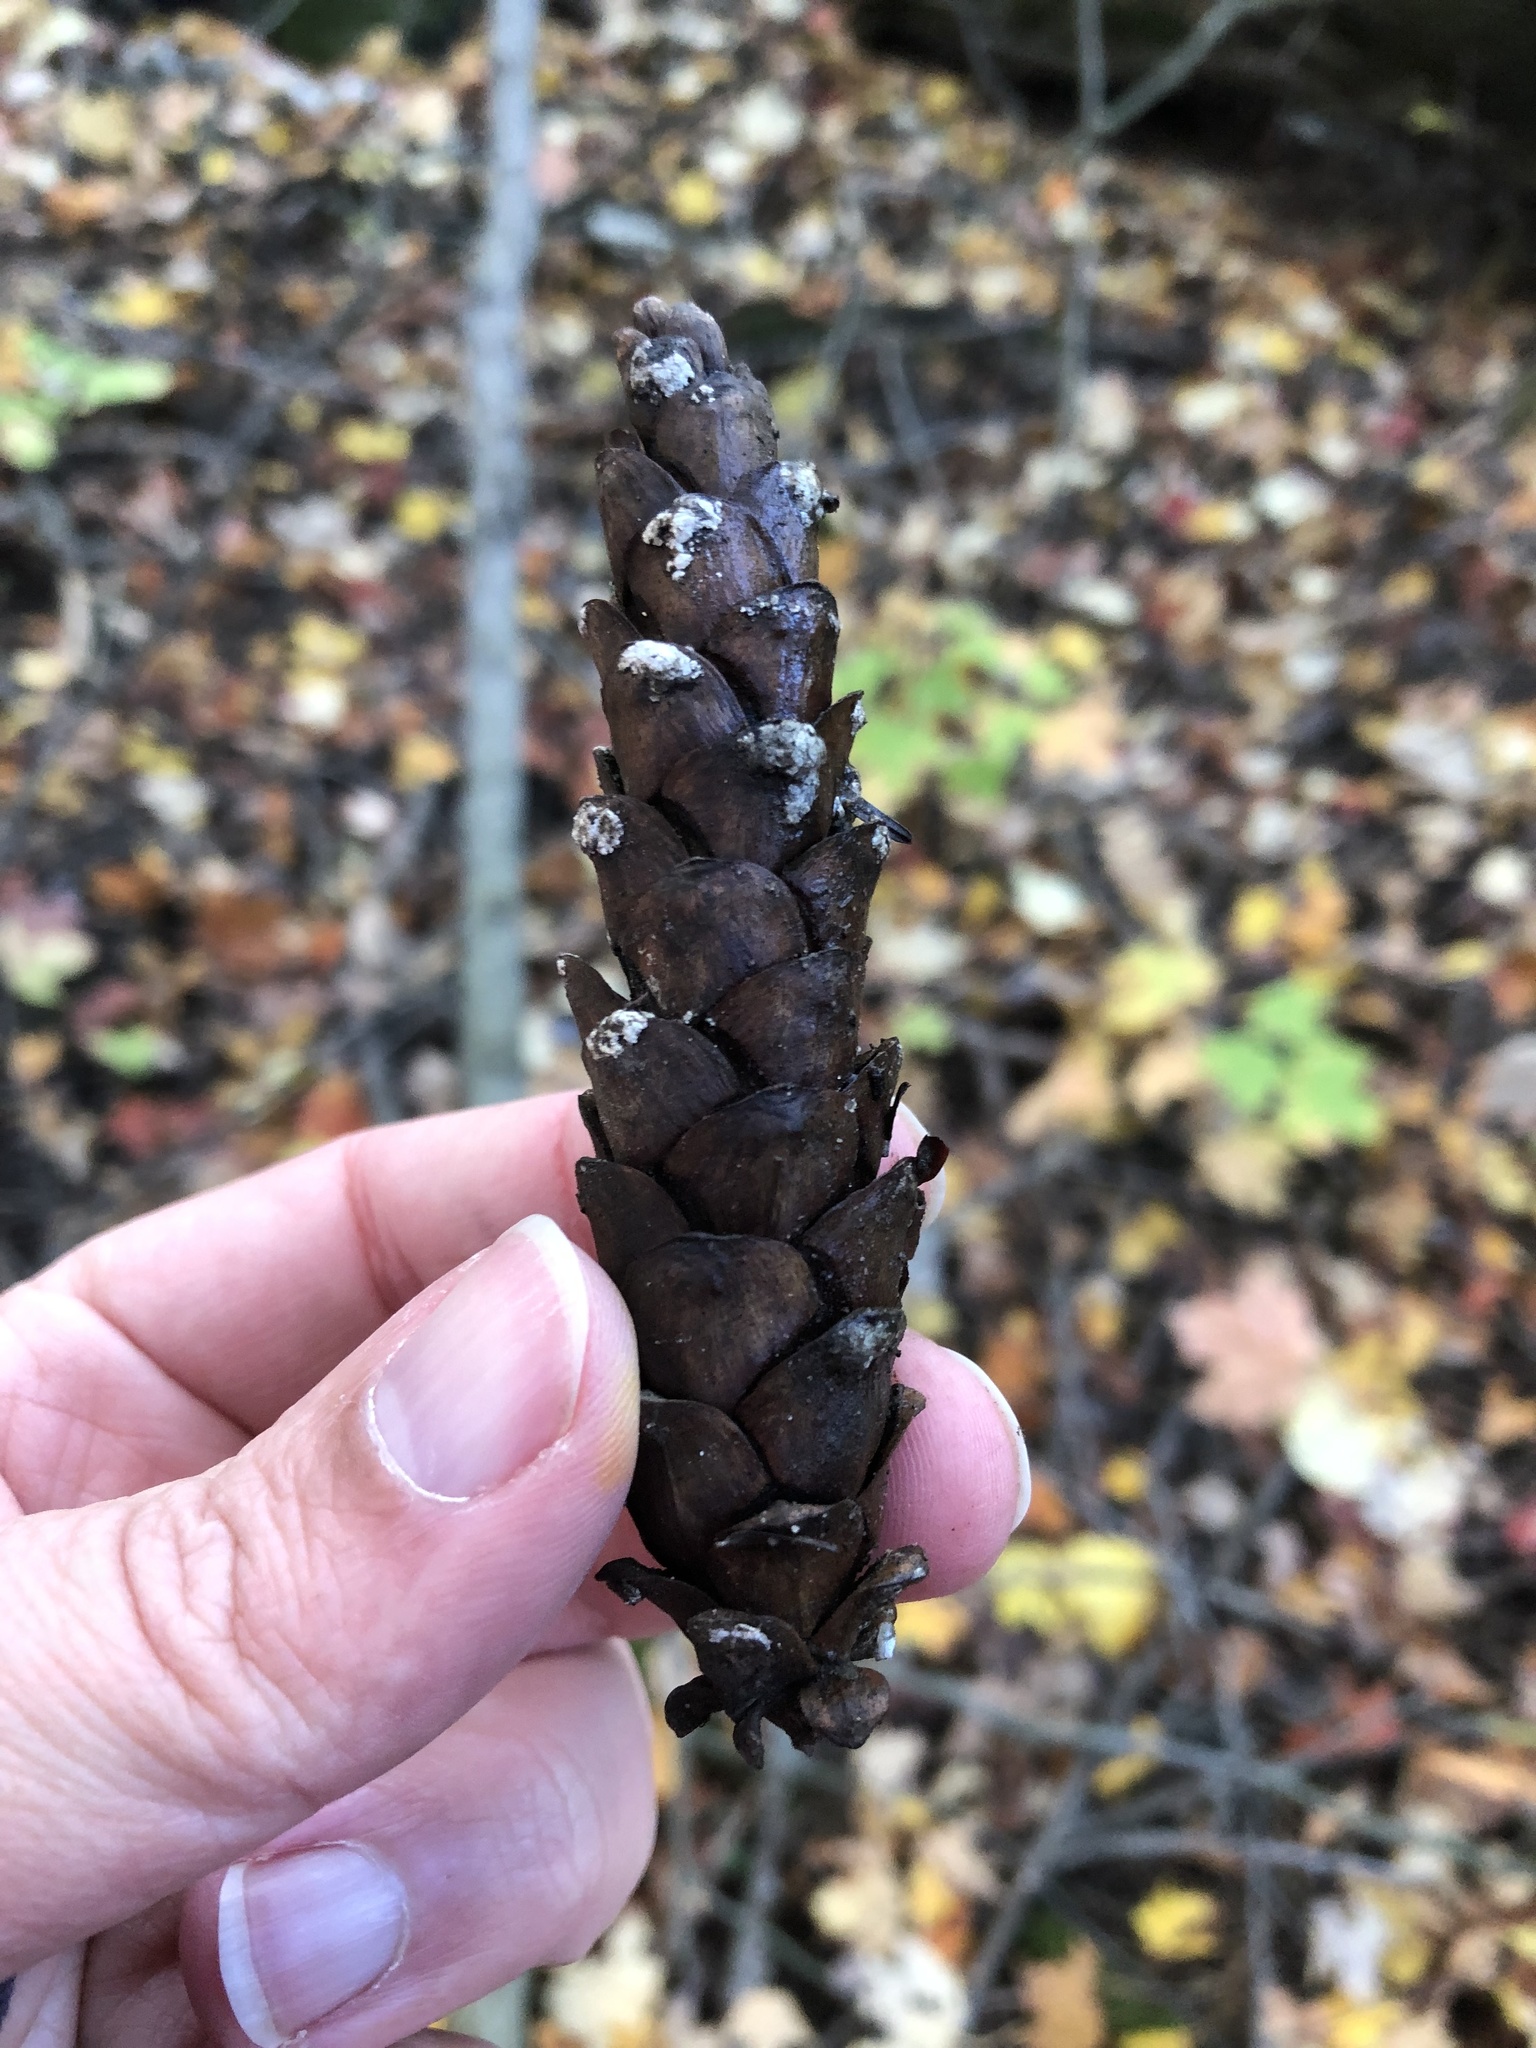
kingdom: Plantae
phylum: Tracheophyta
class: Pinopsida
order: Pinales
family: Pinaceae
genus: Pinus
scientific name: Pinus strobus
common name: Weymouth pine
